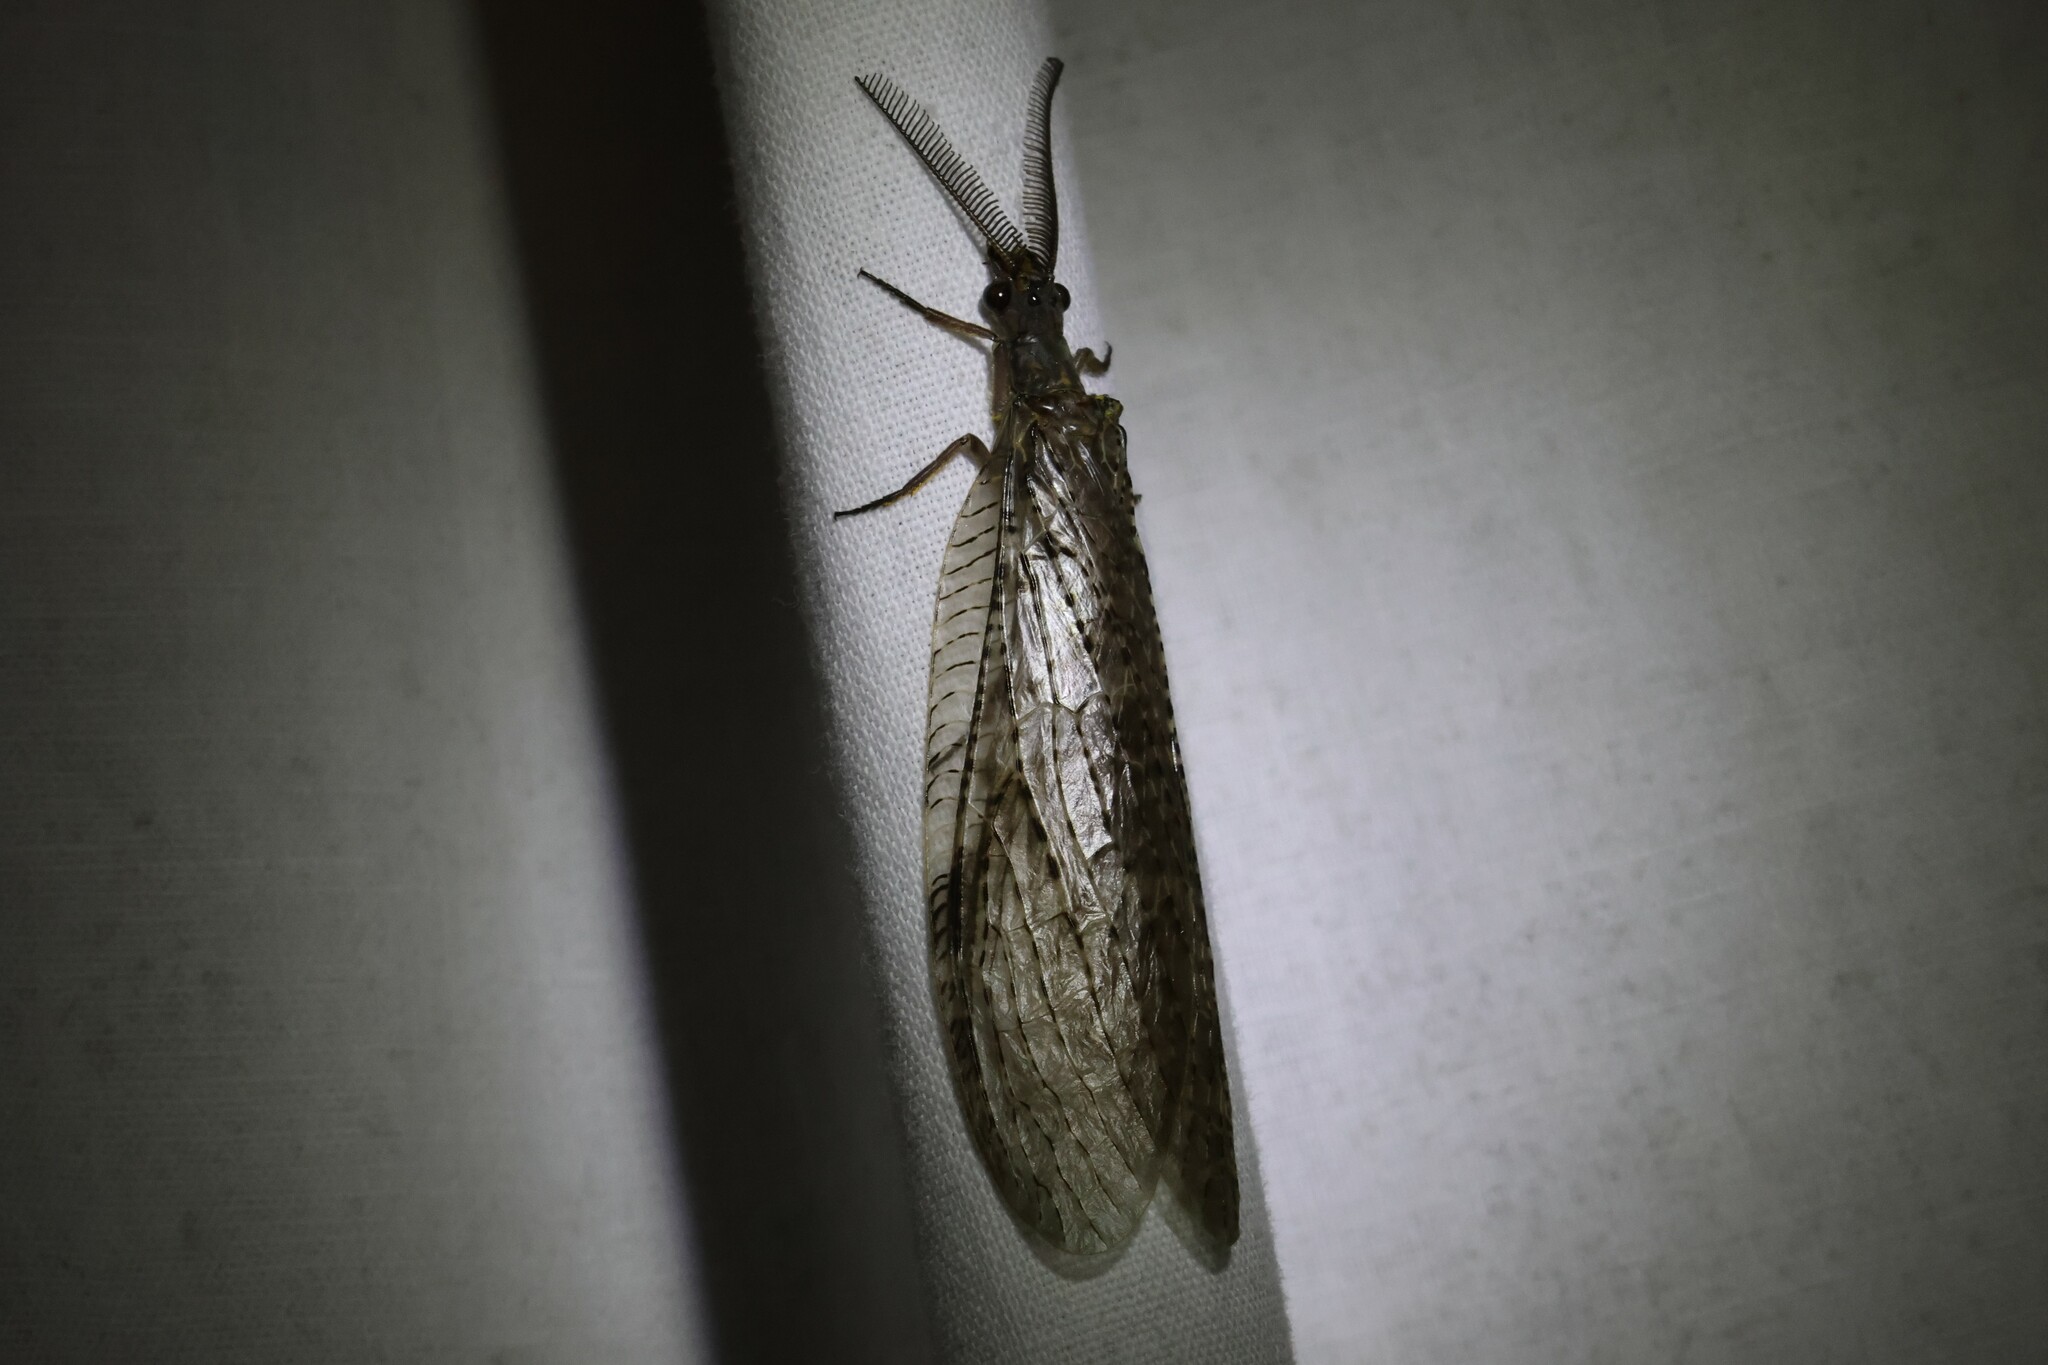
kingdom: Animalia
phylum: Arthropoda
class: Insecta
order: Megaloptera
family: Corydalidae
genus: Chauliodes
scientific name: Chauliodes pectinicornis
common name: Summer fishfly
